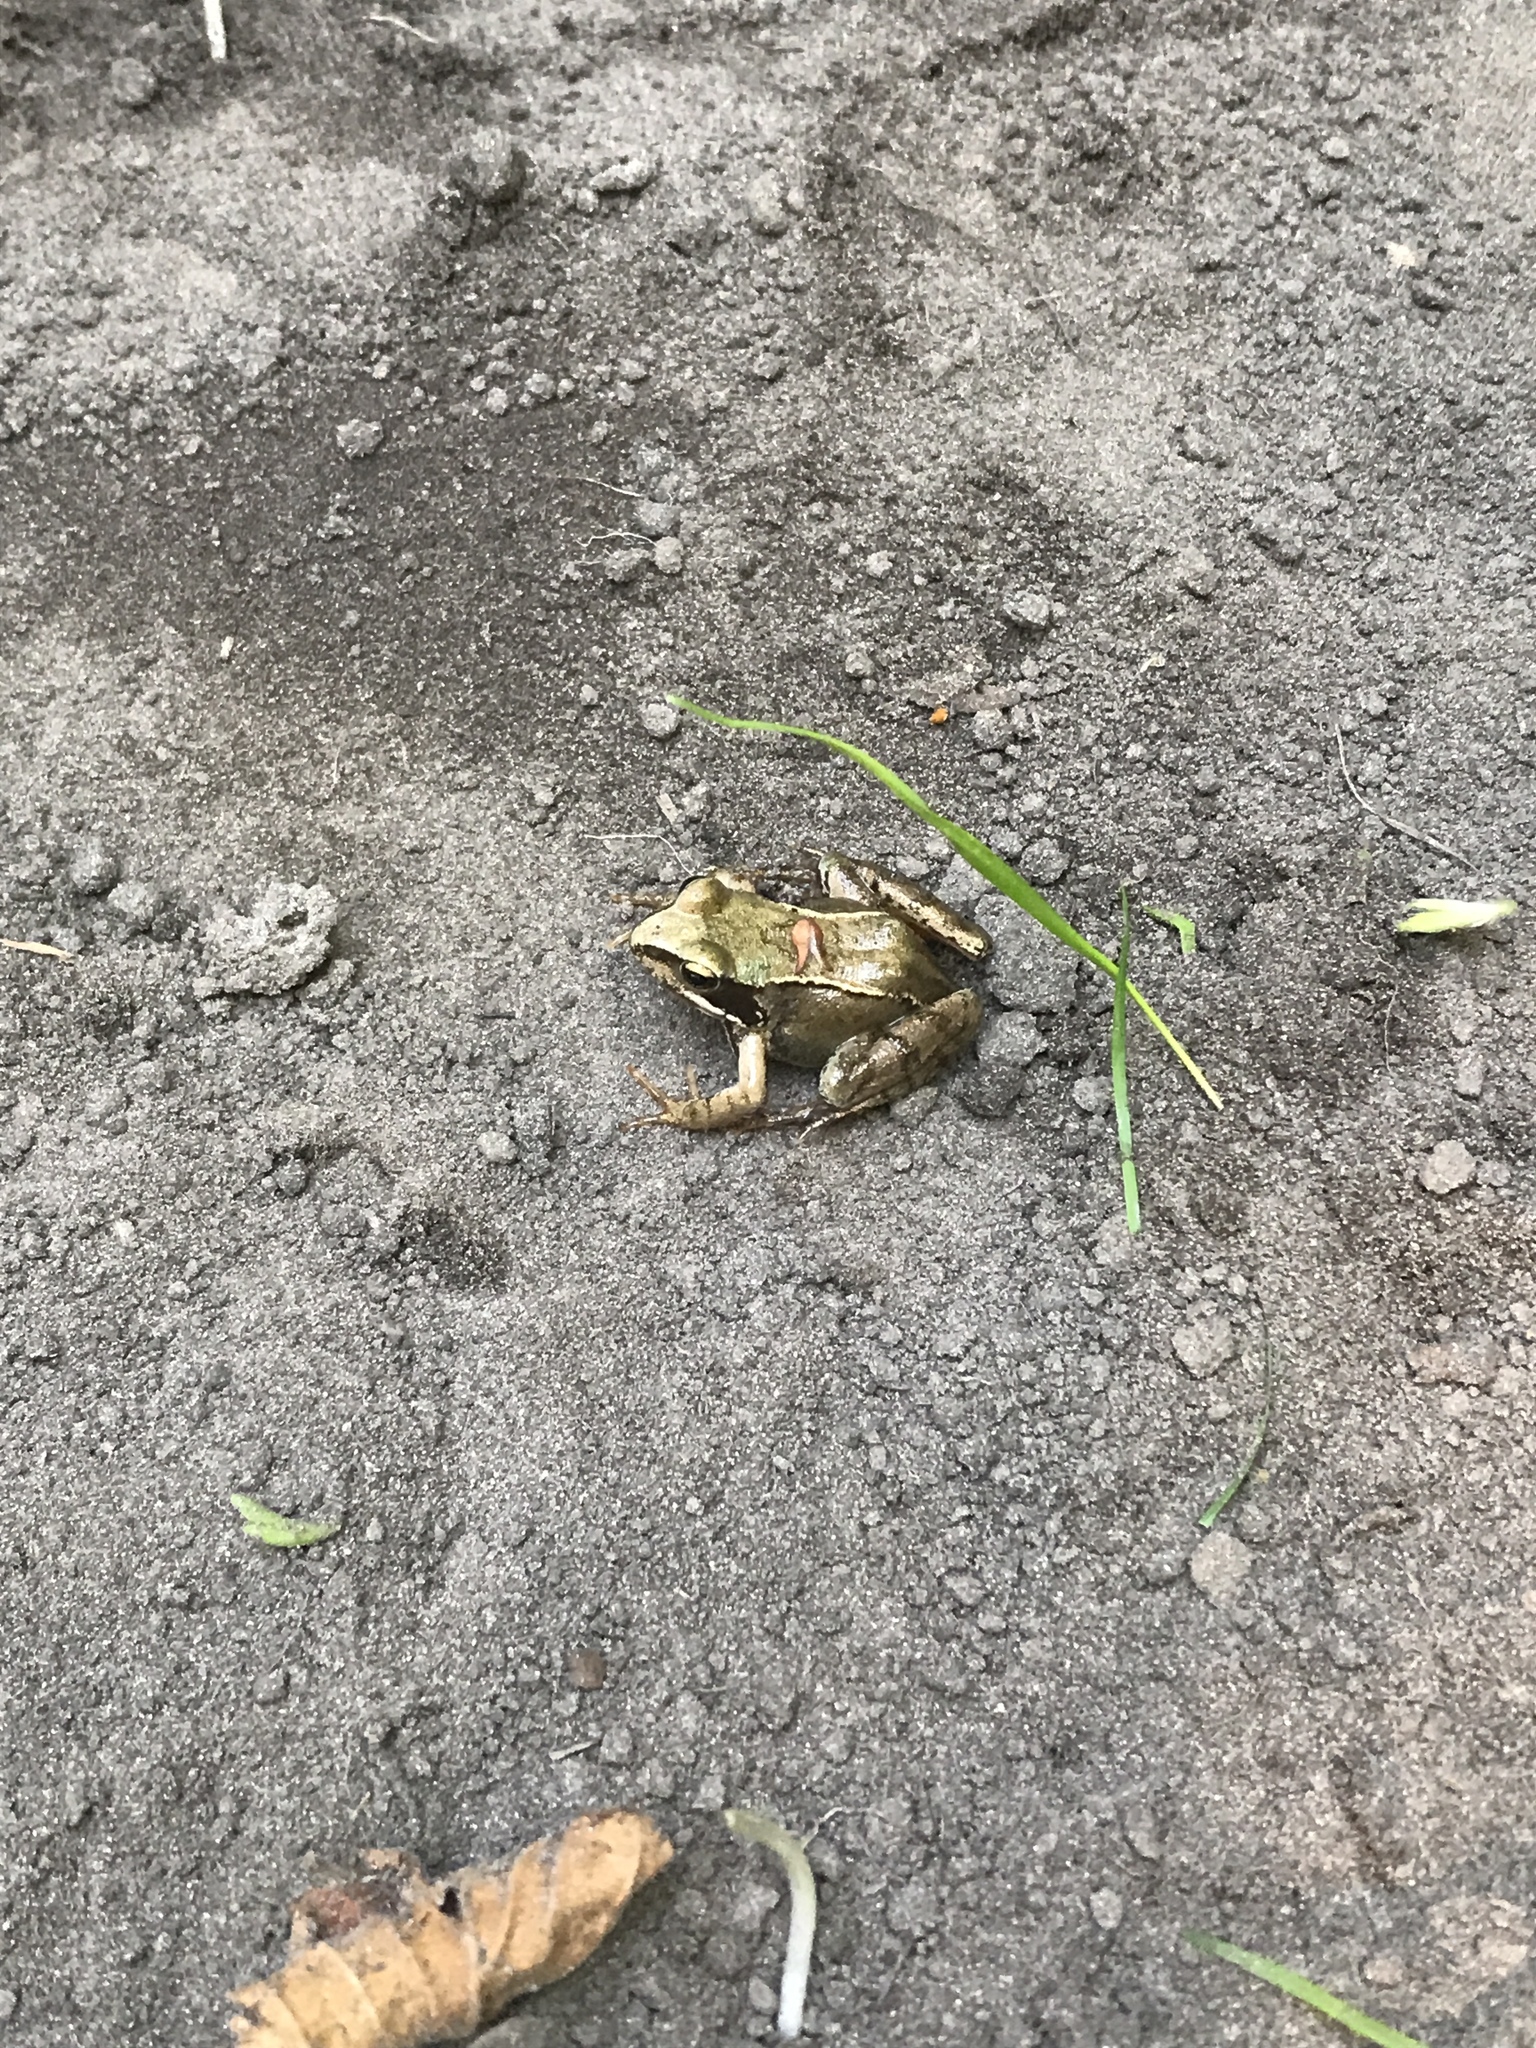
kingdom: Animalia
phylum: Chordata
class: Amphibia
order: Anura
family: Ranidae
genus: Rana
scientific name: Rana temporaria
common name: Common frog
